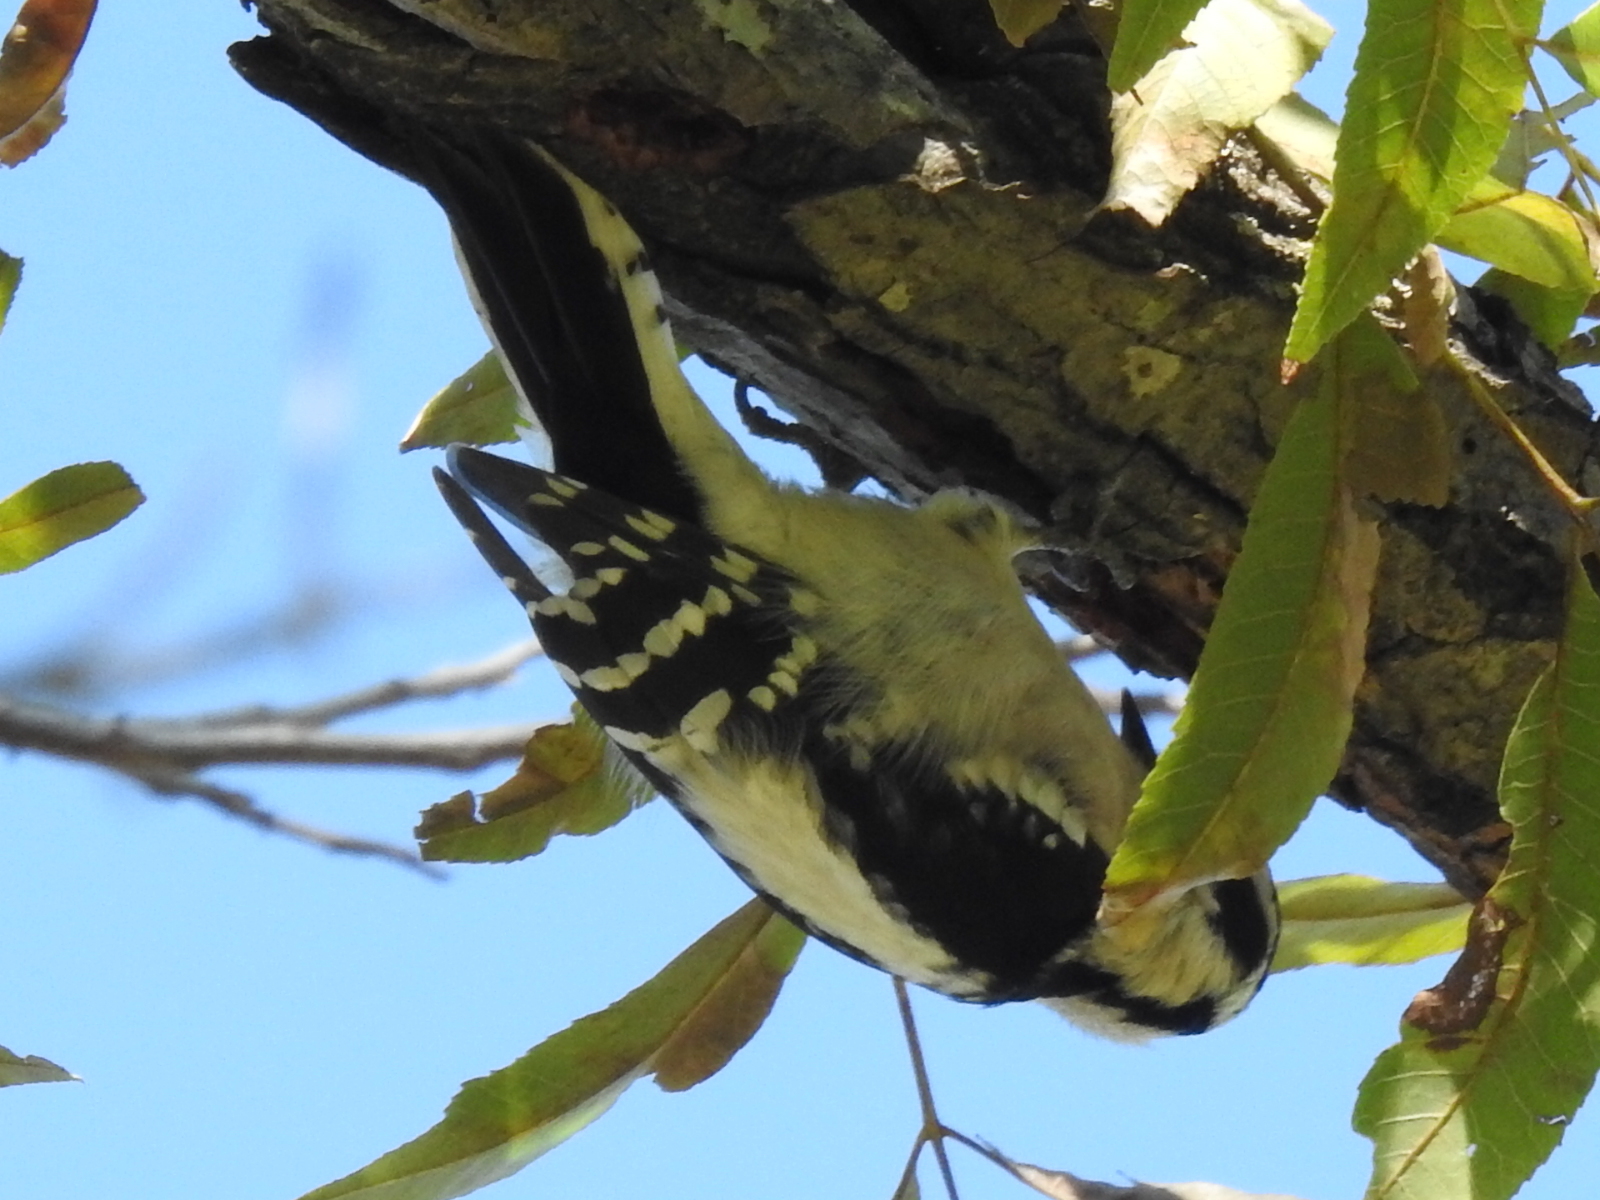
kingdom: Animalia
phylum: Chordata
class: Aves
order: Piciformes
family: Picidae
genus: Dryobates
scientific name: Dryobates pubescens
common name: Downy woodpecker
